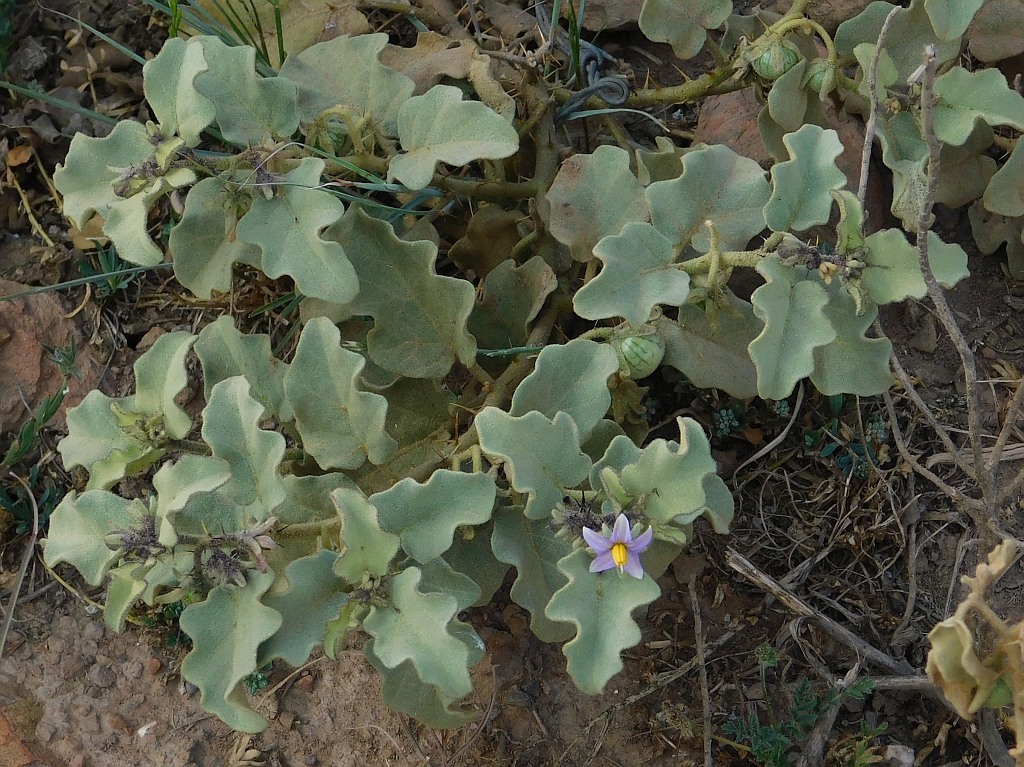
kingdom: Plantae
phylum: Tracheophyta
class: Magnoliopsida
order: Solanales
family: Solanaceae
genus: Solanum
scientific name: Solanum tomentosum
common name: Wild aubergine
